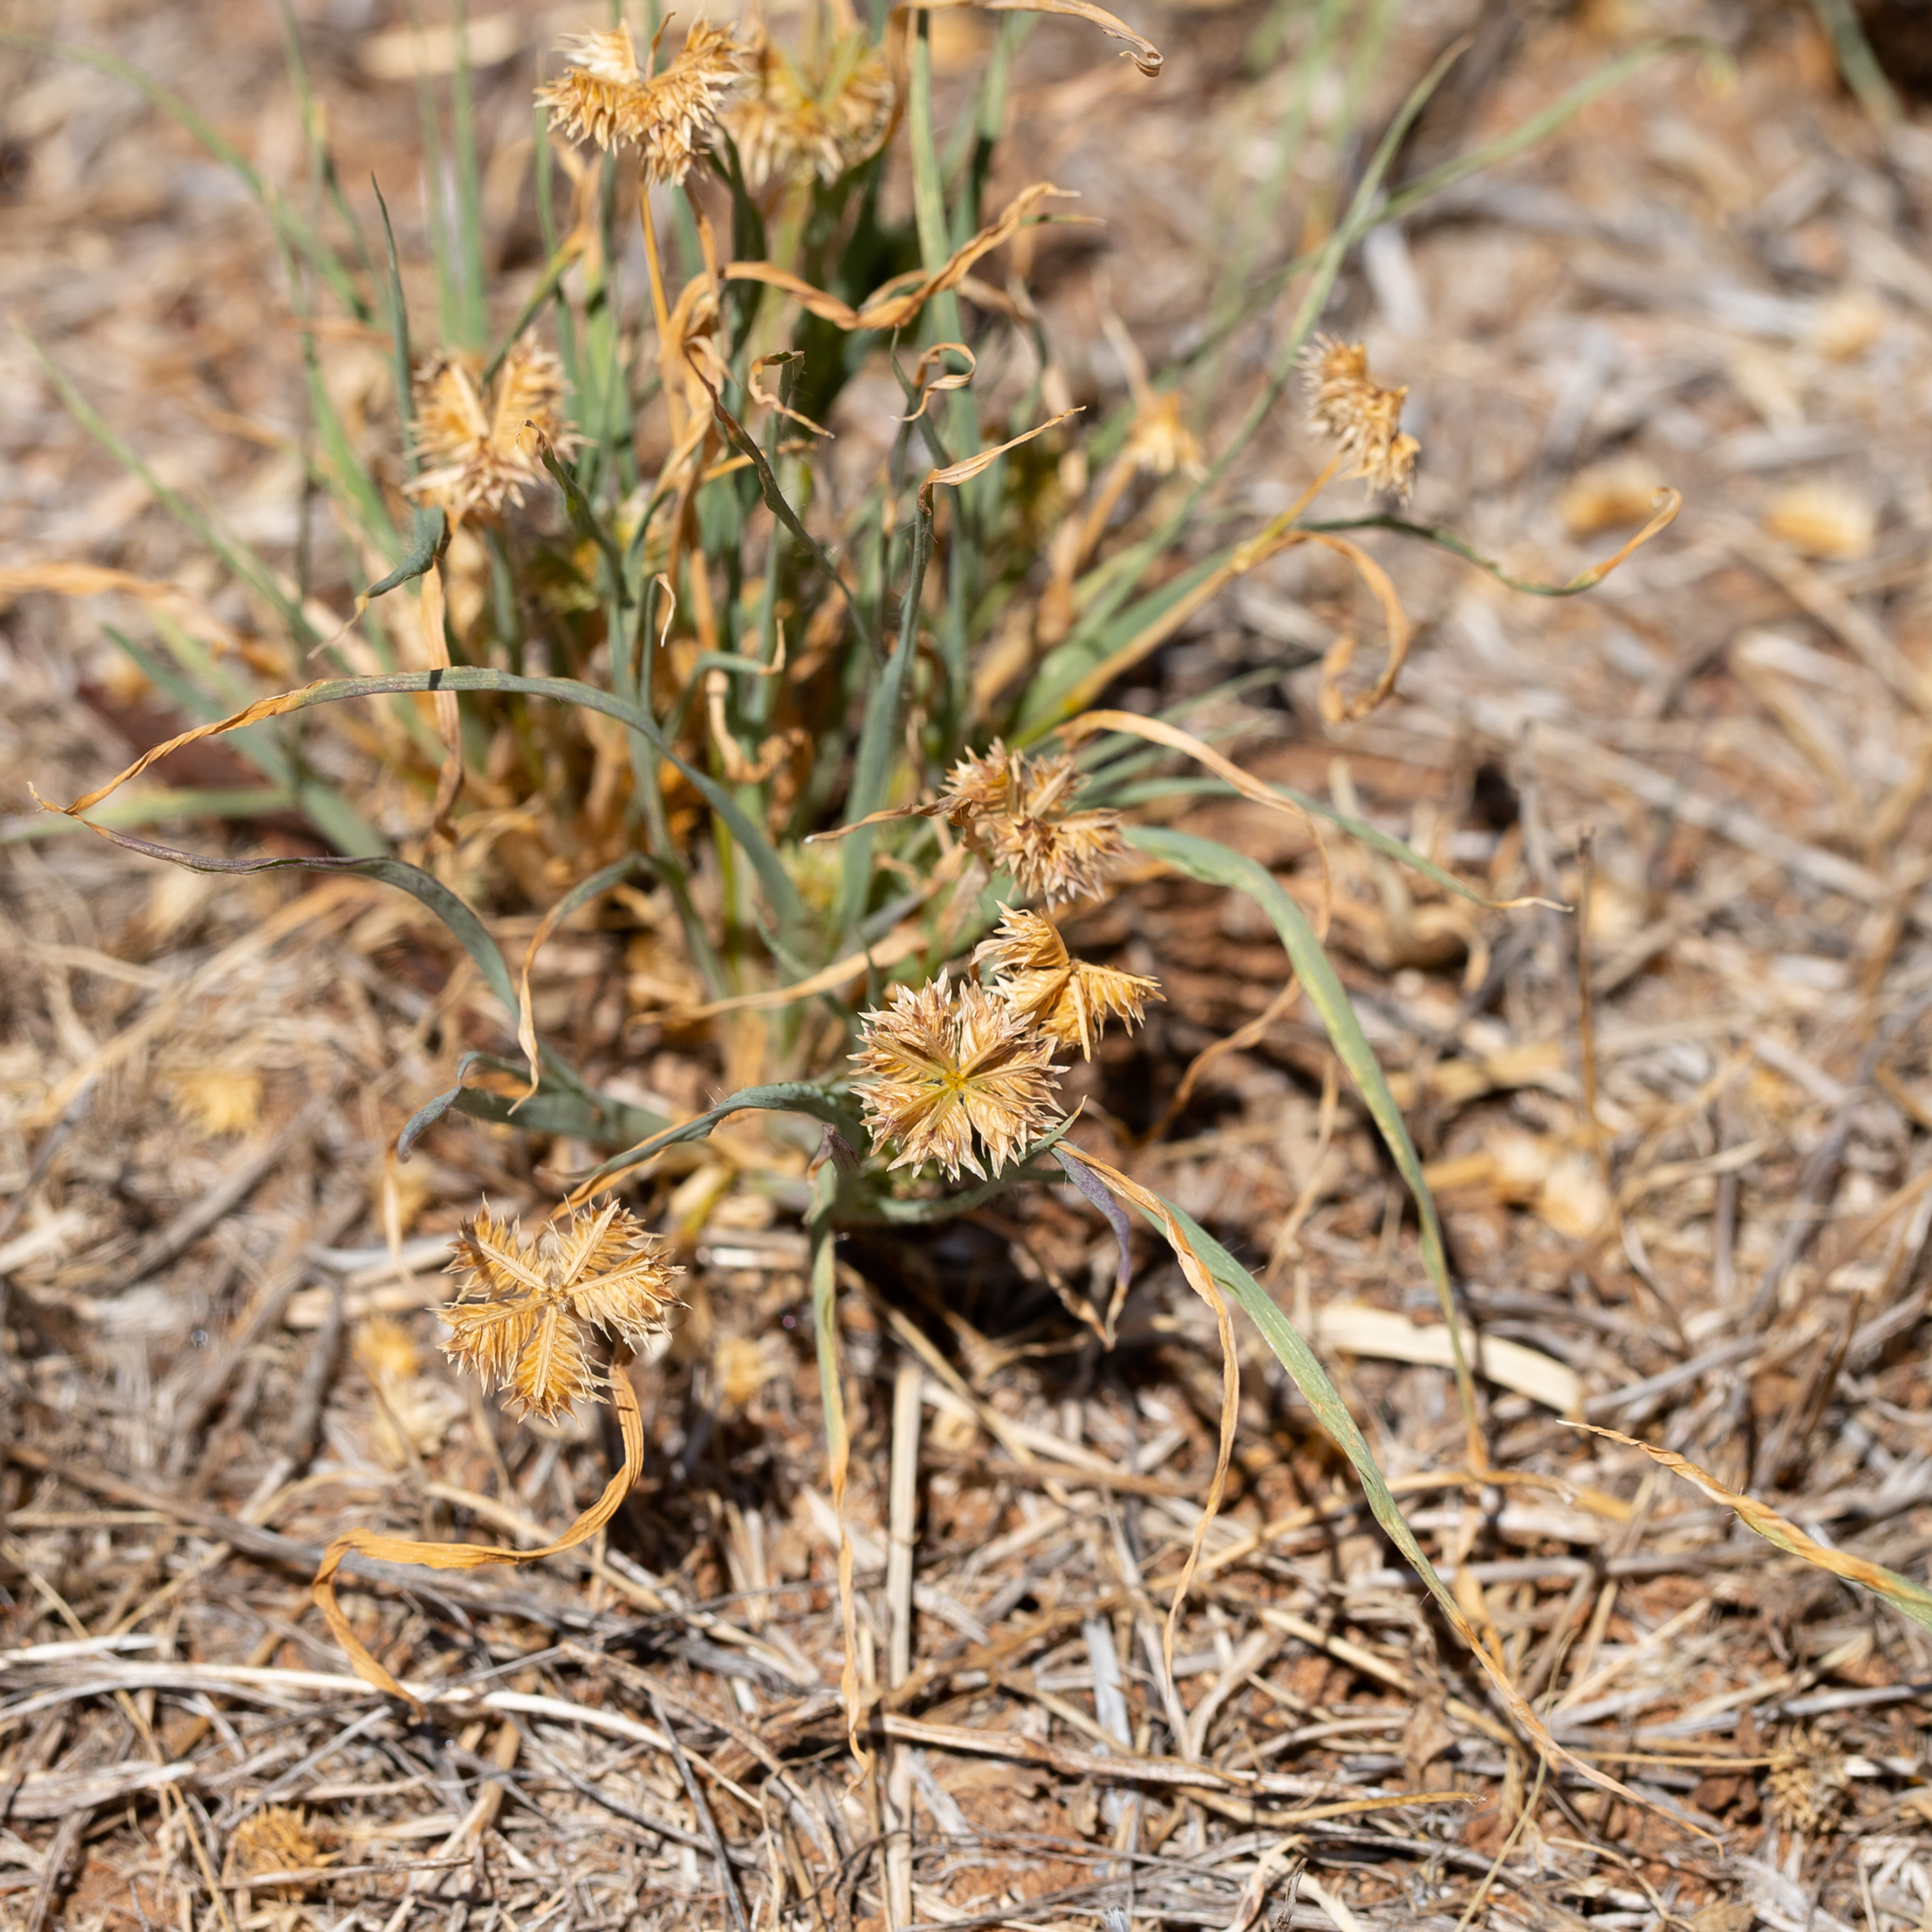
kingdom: Plantae
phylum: Tracheophyta
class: Liliopsida
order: Poales
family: Poaceae
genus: Dactyloctenium
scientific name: Dactyloctenium radulans
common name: Button-grass
